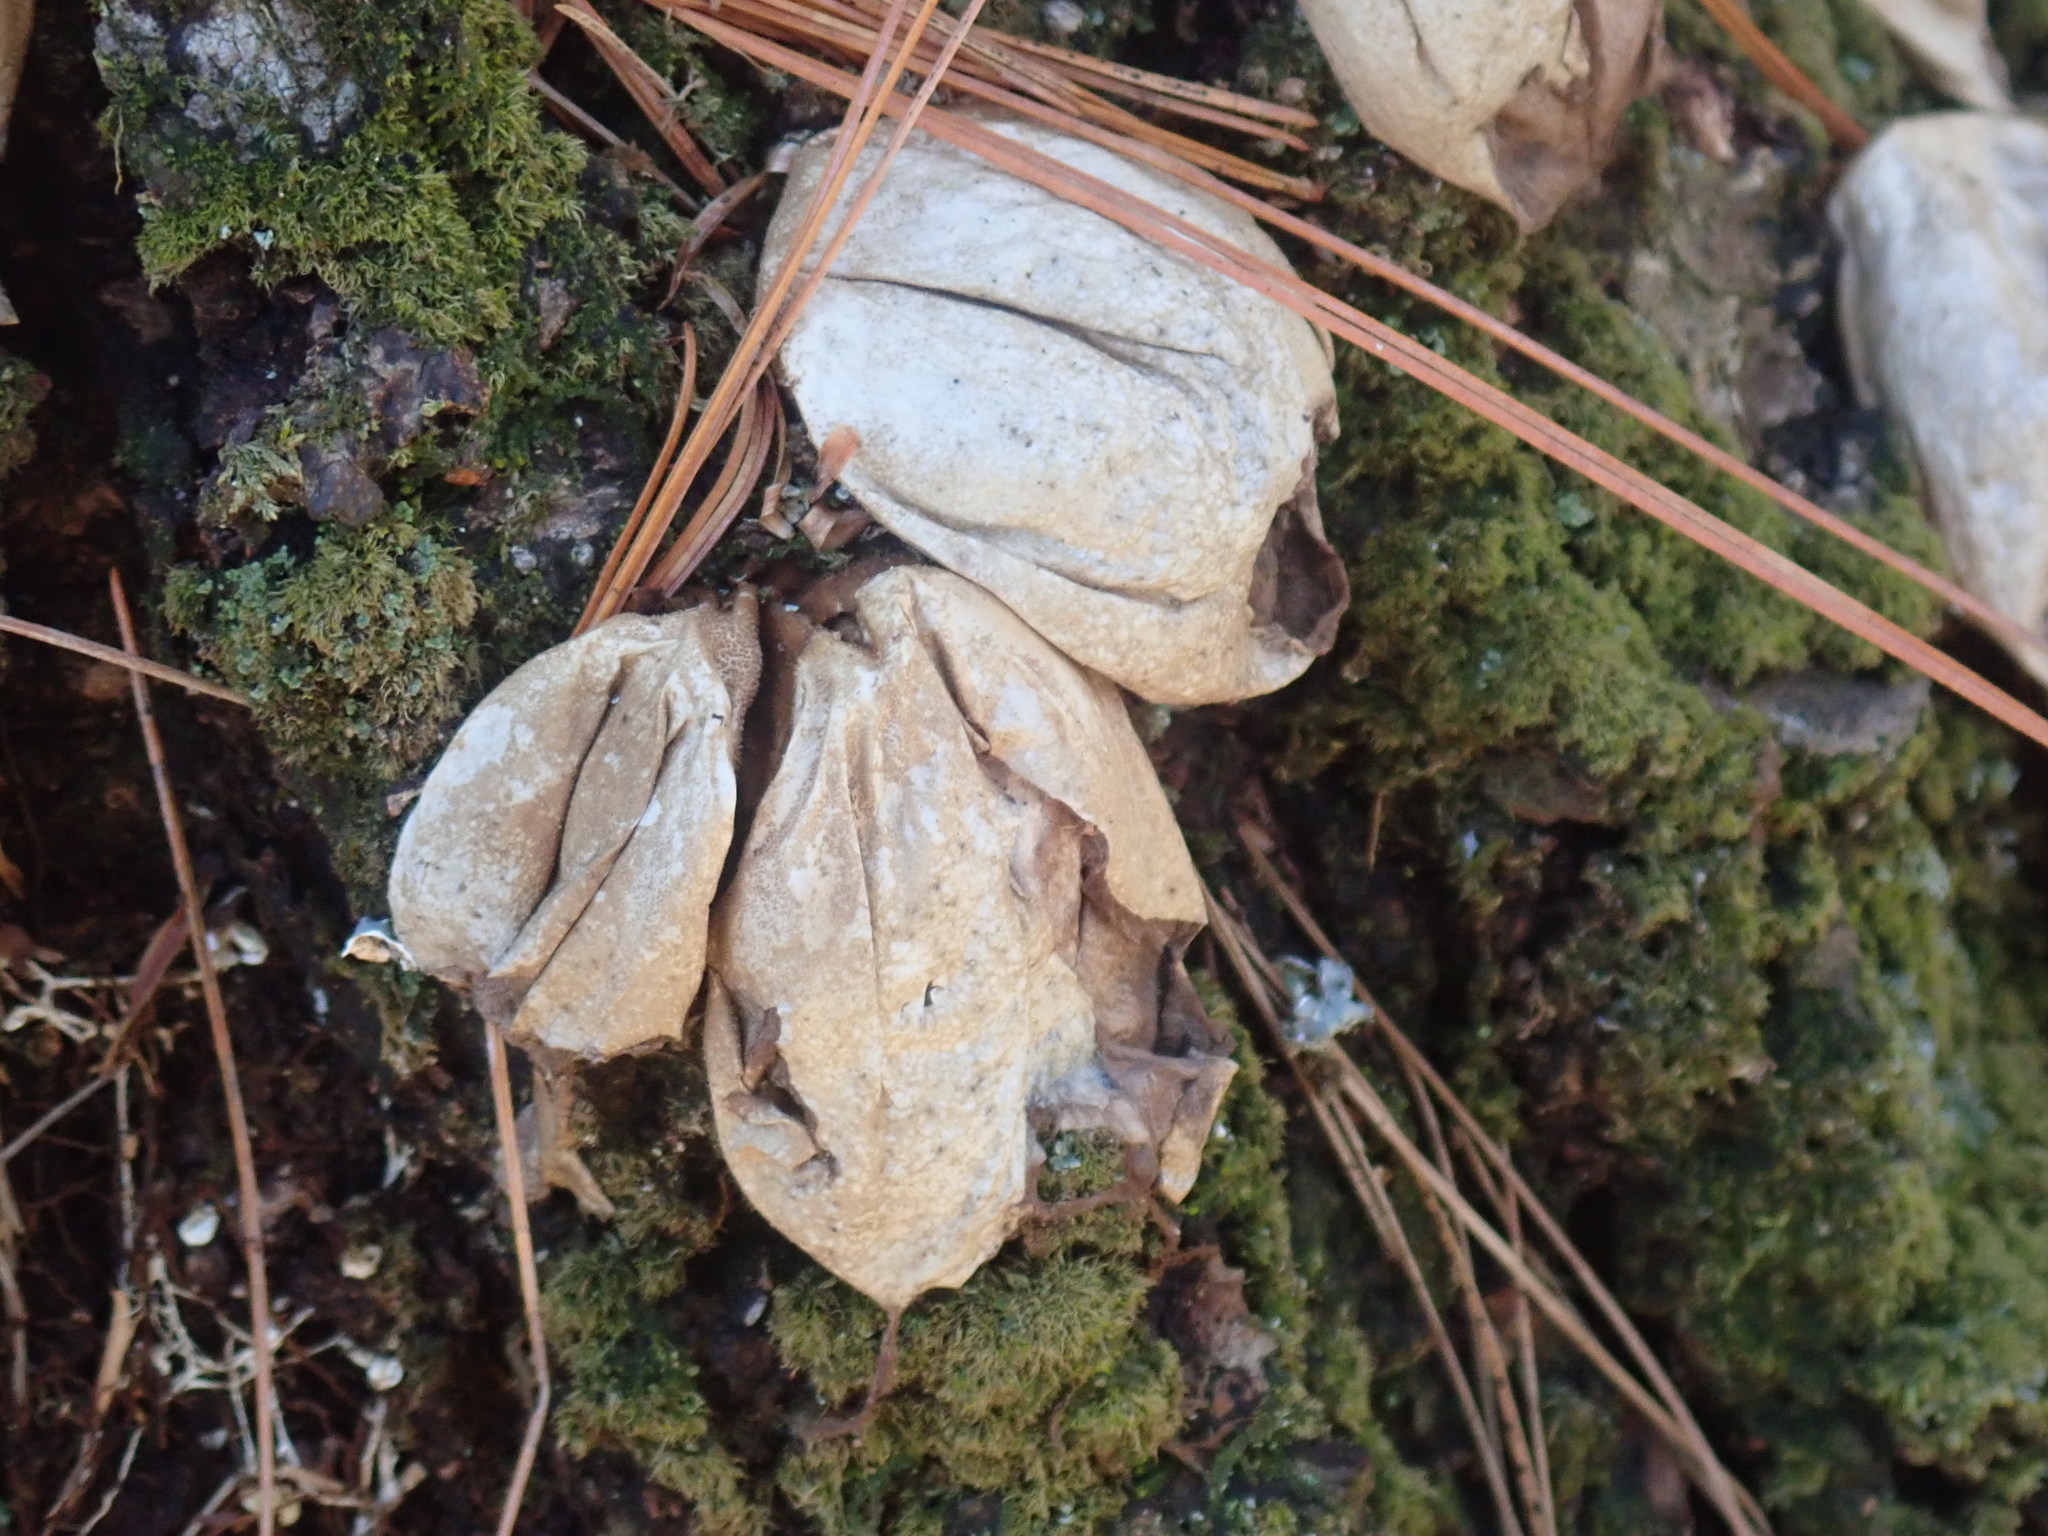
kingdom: Fungi
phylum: Basidiomycota
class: Agaricomycetes
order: Agaricales
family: Lycoperdaceae
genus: Apioperdon
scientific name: Apioperdon pyriforme
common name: Pear-shaped puffball
